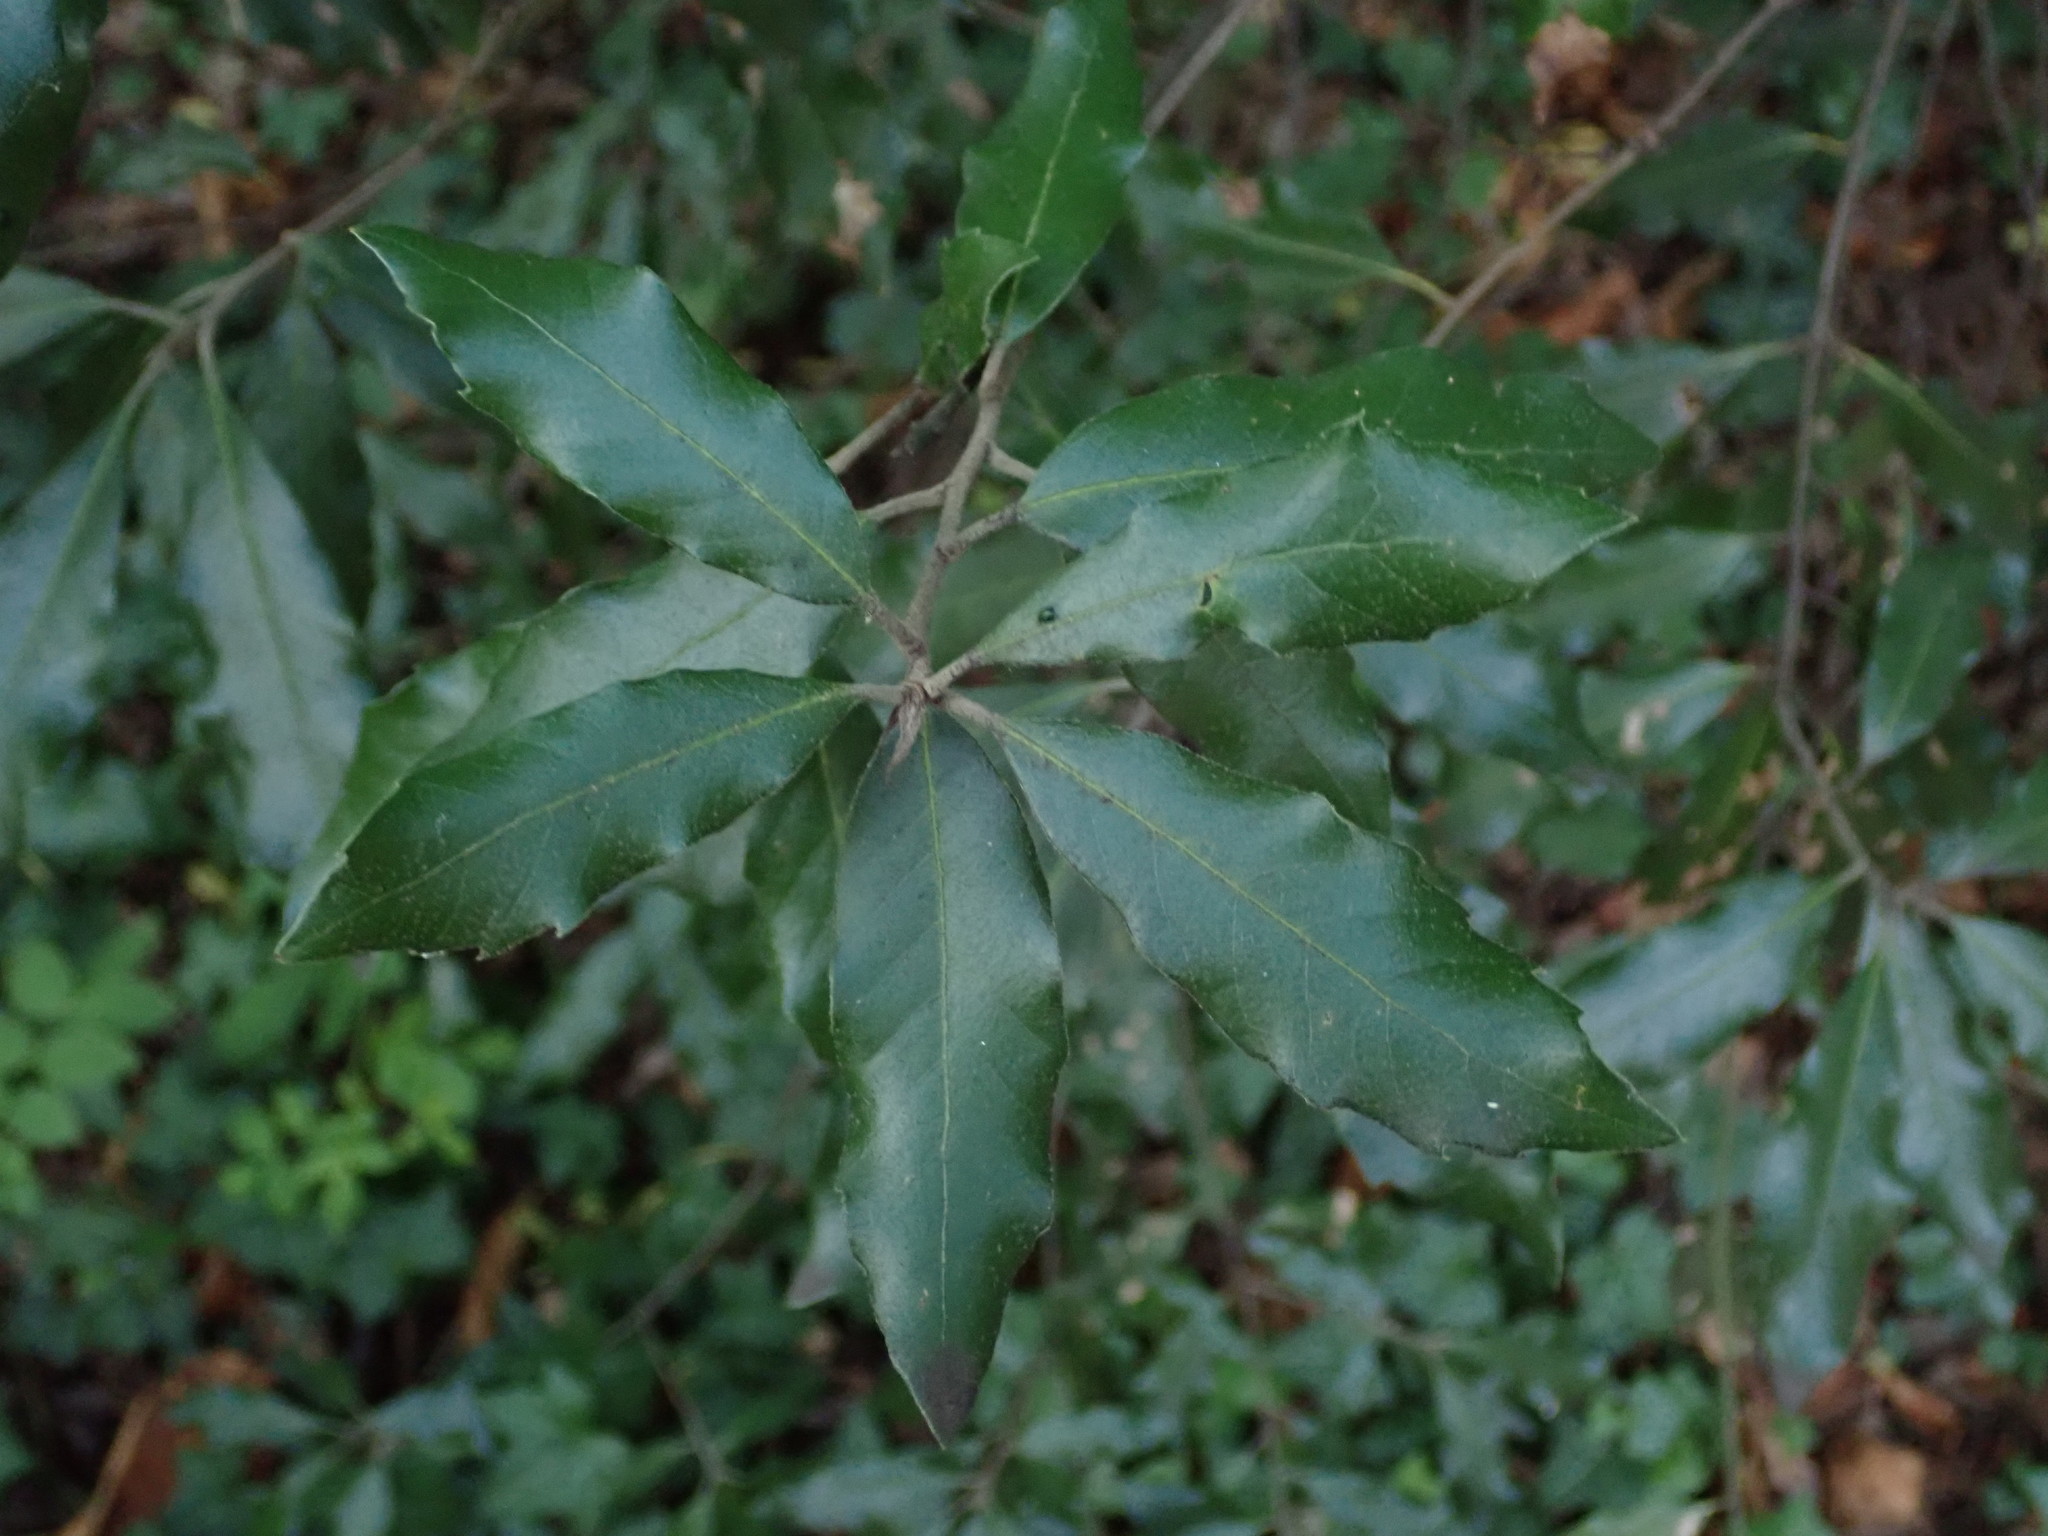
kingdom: Plantae
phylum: Tracheophyta
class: Magnoliopsida
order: Fagales
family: Fagaceae
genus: Quercus
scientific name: Quercus ilex
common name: Evergreen oak
